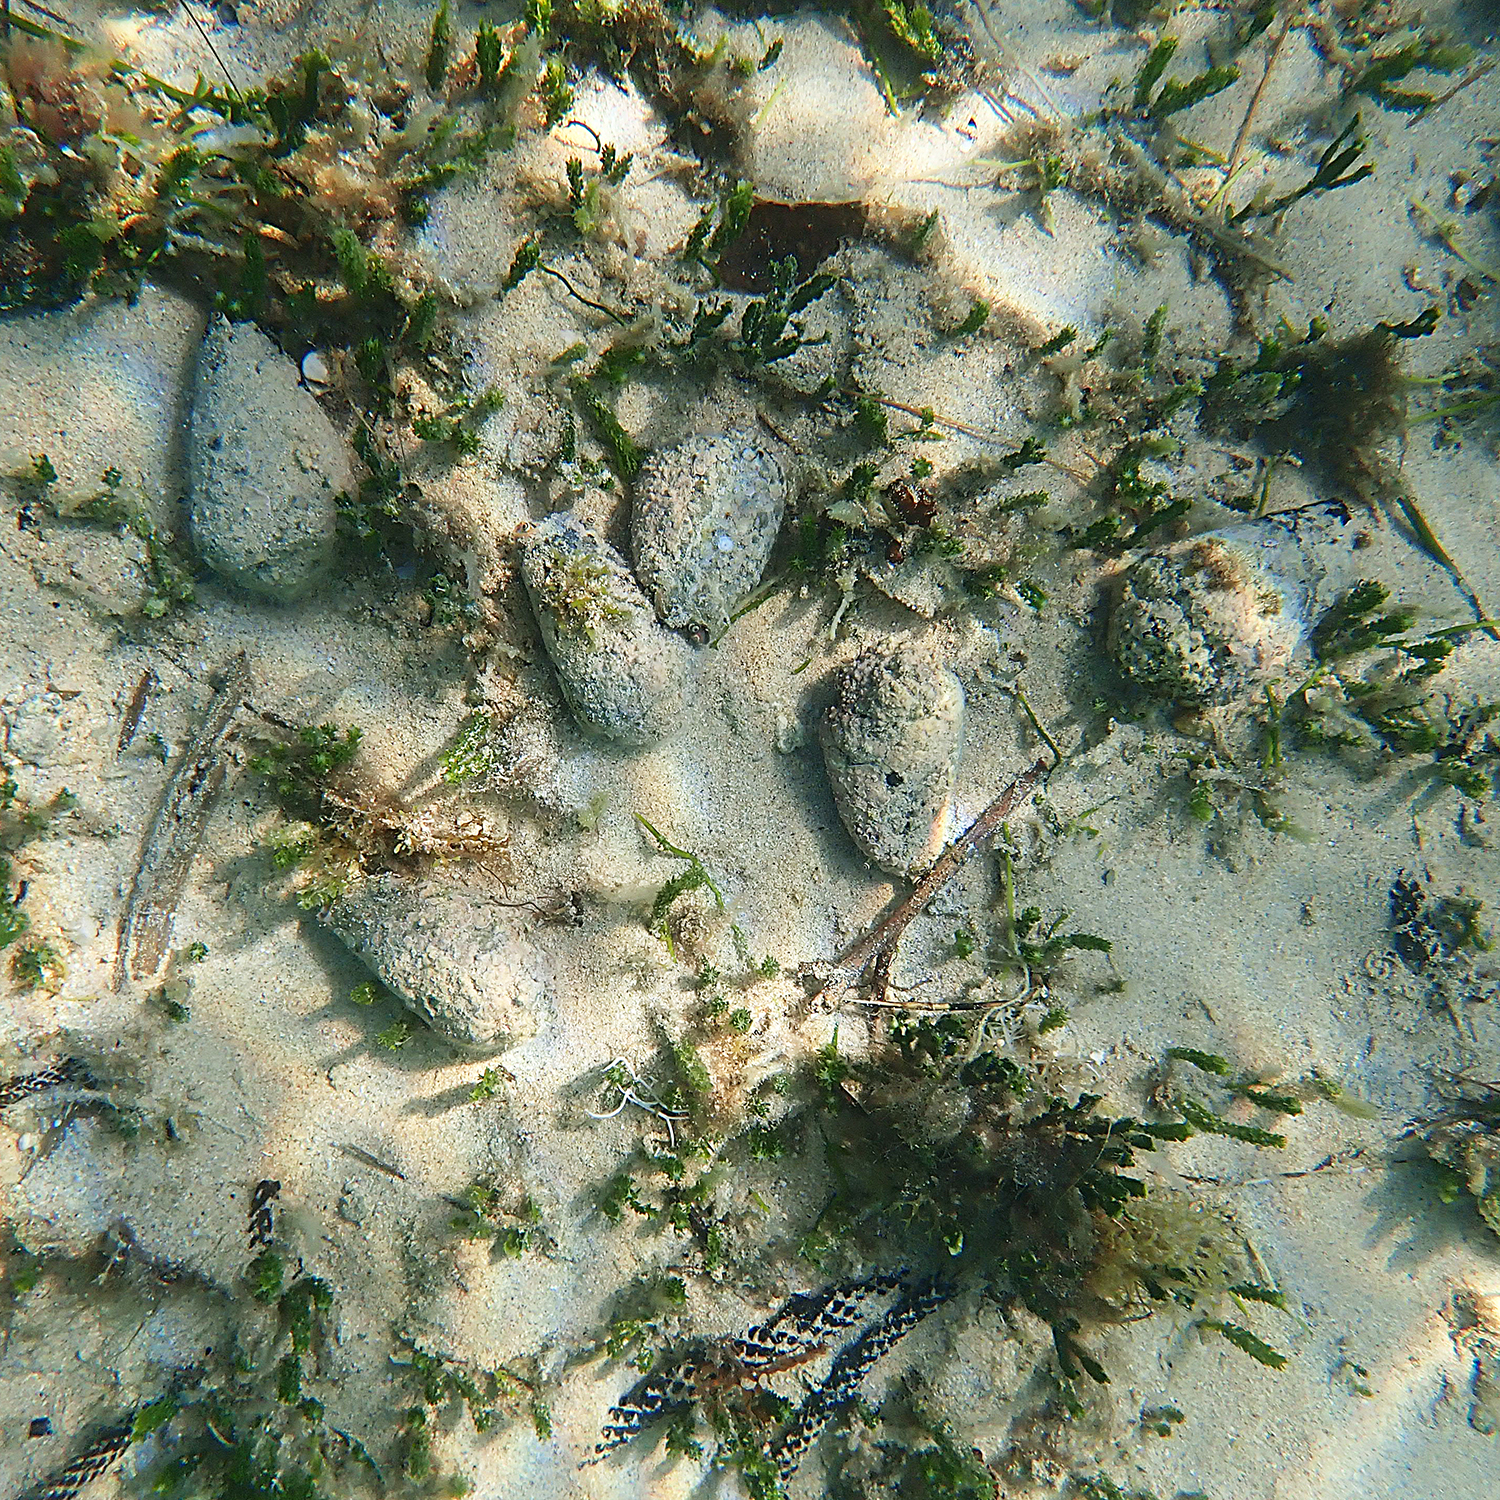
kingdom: Animalia
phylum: Mollusca
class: Gastropoda
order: Littorinimorpha
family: Strombidae
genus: Conomurex
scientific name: Conomurex luhuanus
